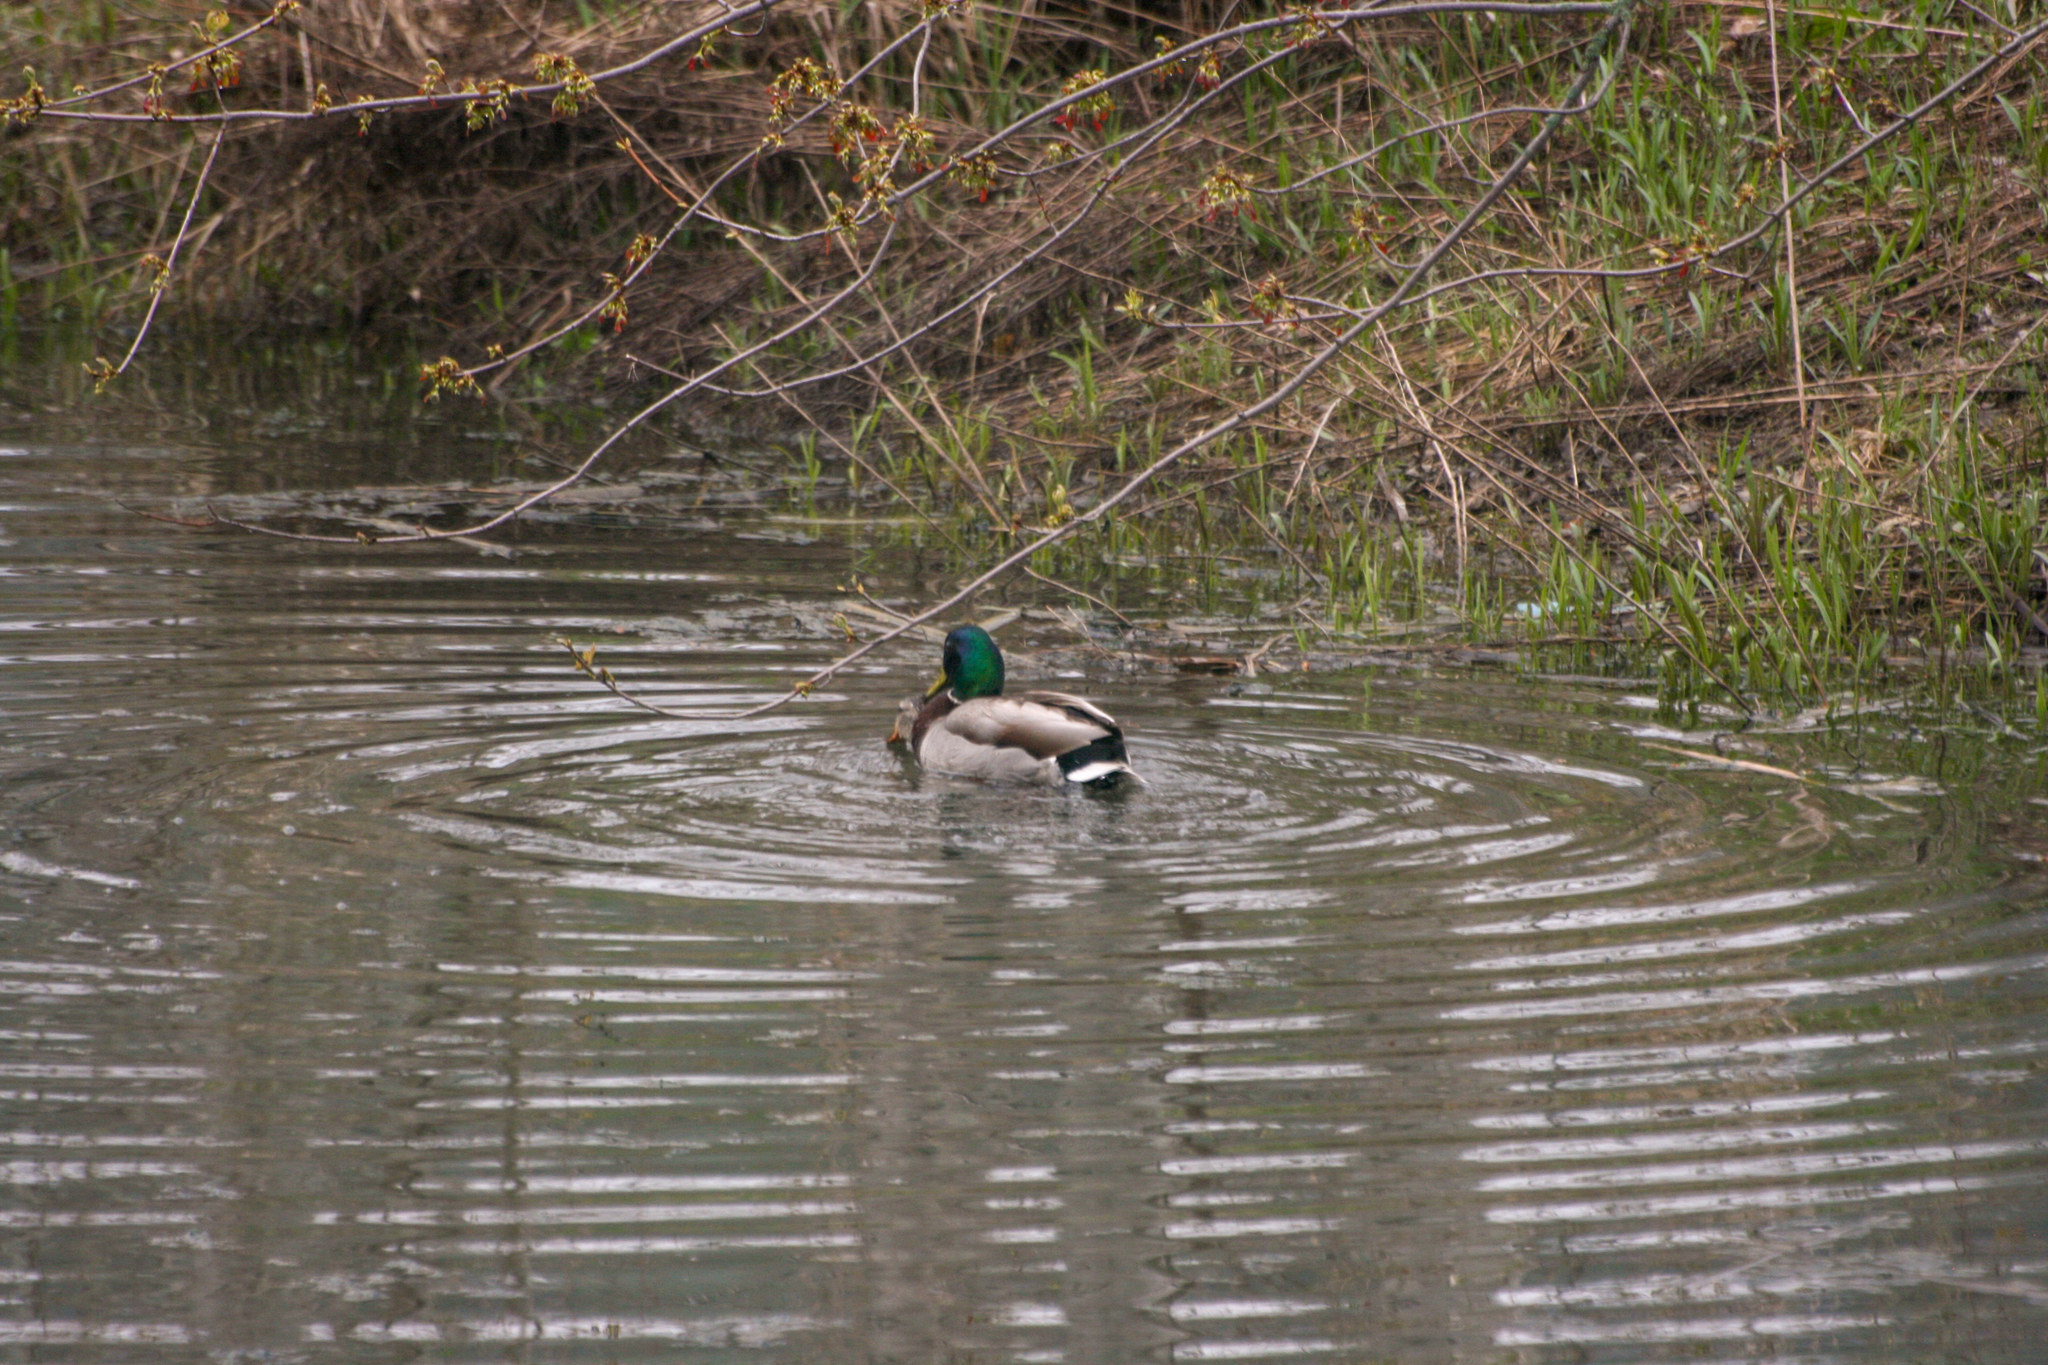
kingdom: Animalia
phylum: Chordata
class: Aves
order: Anseriformes
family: Anatidae
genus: Anas
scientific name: Anas platyrhynchos
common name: Mallard
